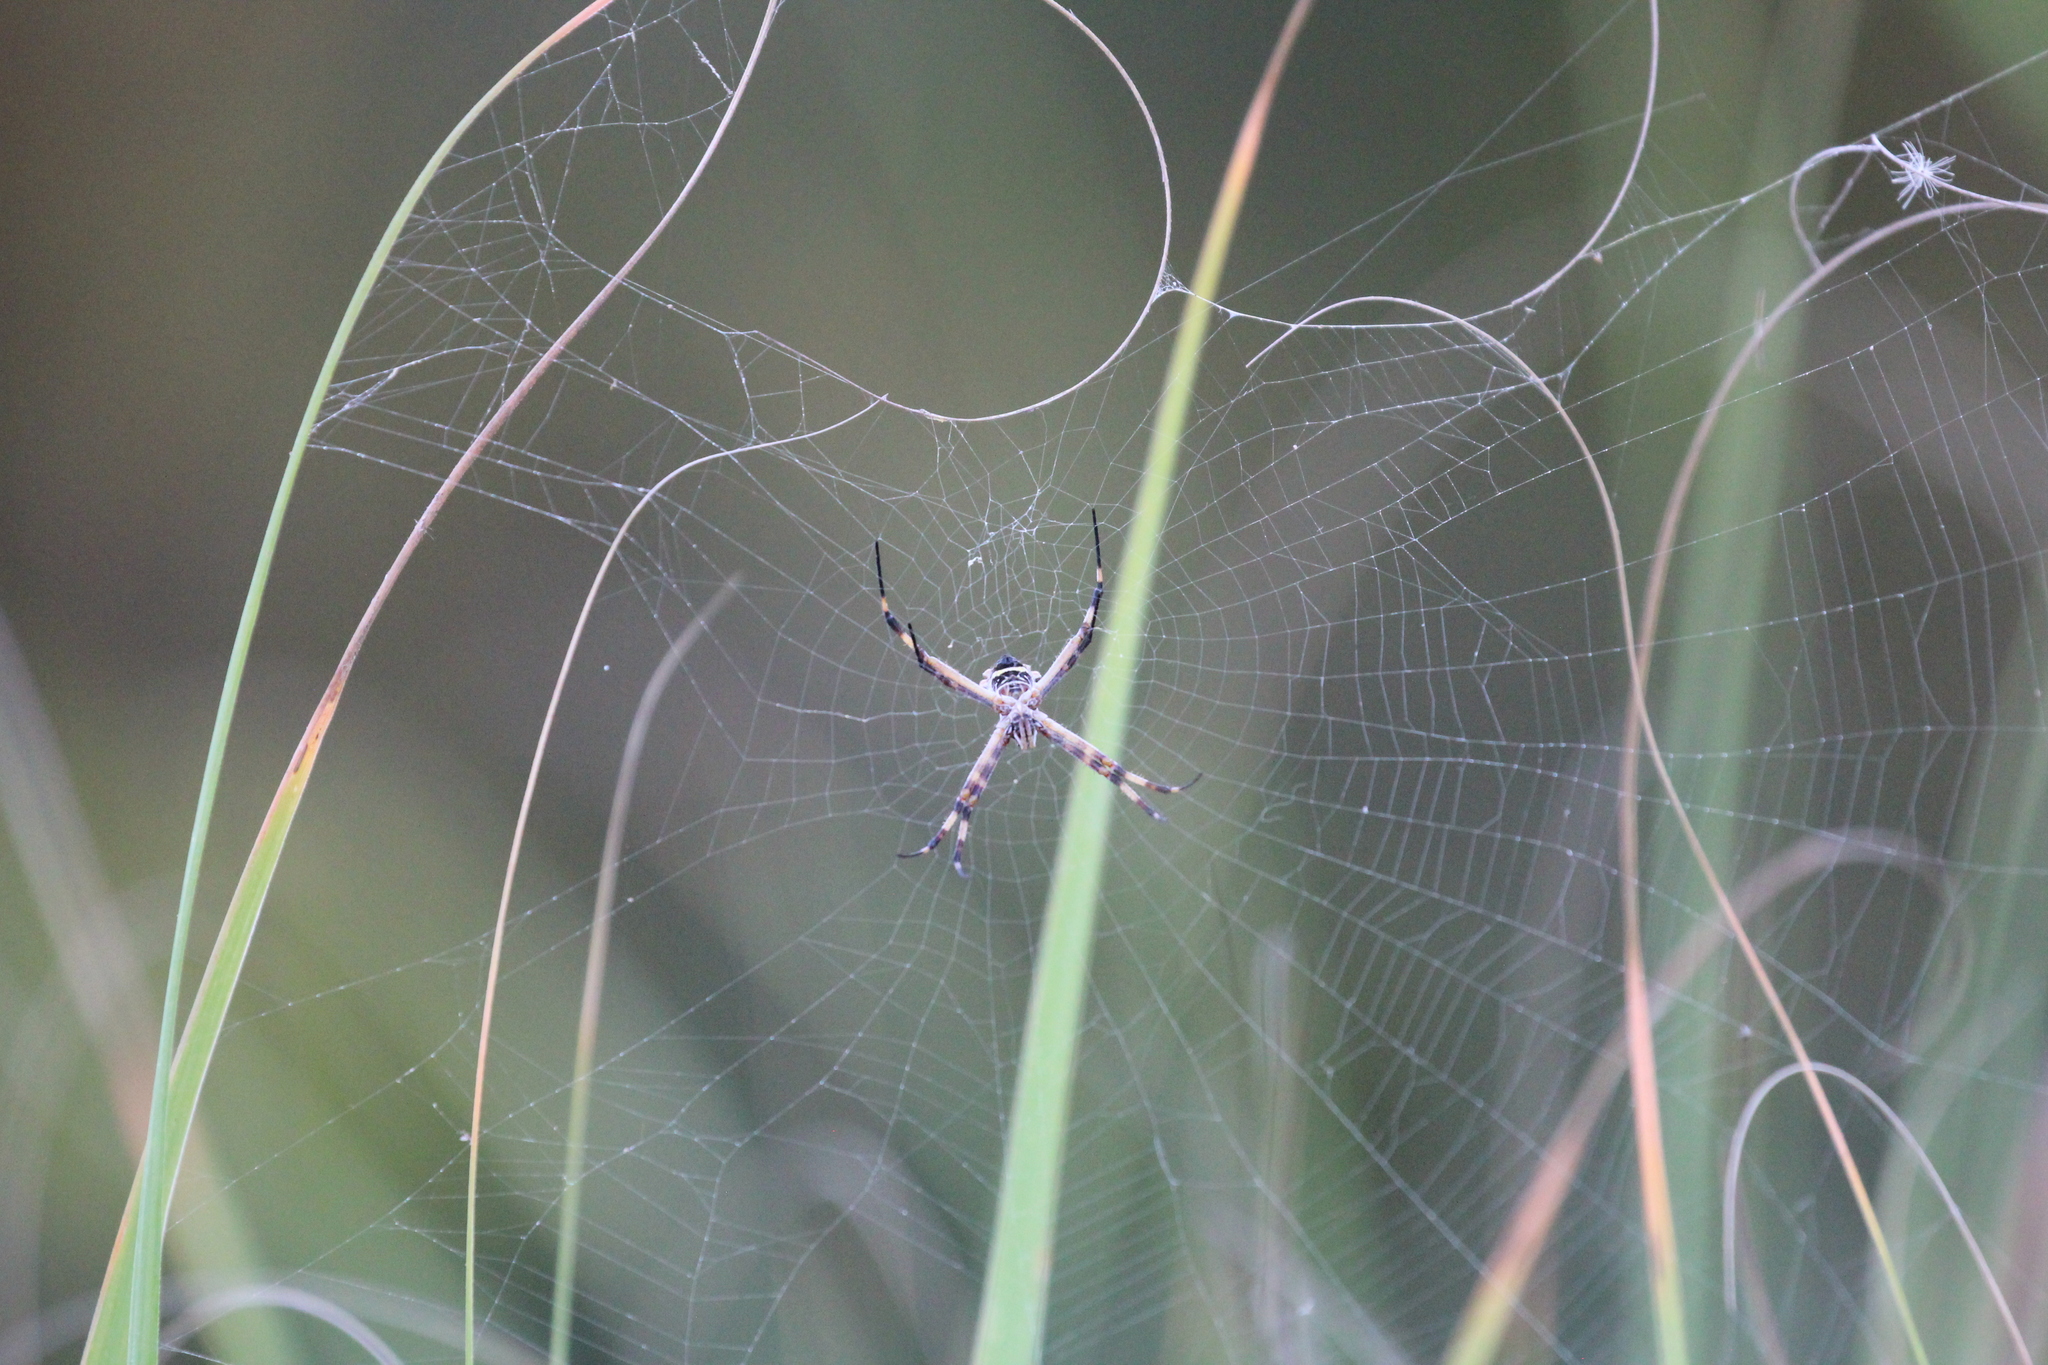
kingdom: Animalia
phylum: Arthropoda
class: Arachnida
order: Araneae
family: Araneidae
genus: Argiope
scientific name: Argiope argentata
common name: Orb weavers
